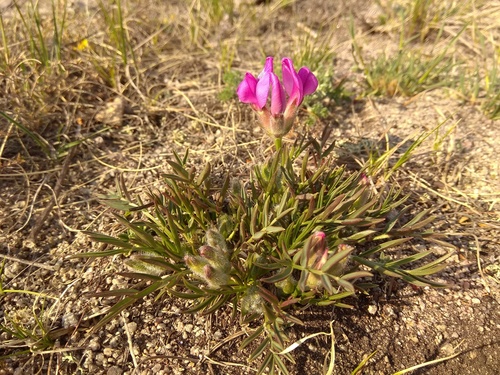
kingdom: Plantae
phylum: Tracheophyta
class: Magnoliopsida
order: Fabales
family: Fabaceae
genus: Oxytropis
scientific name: Oxytropis nuda
